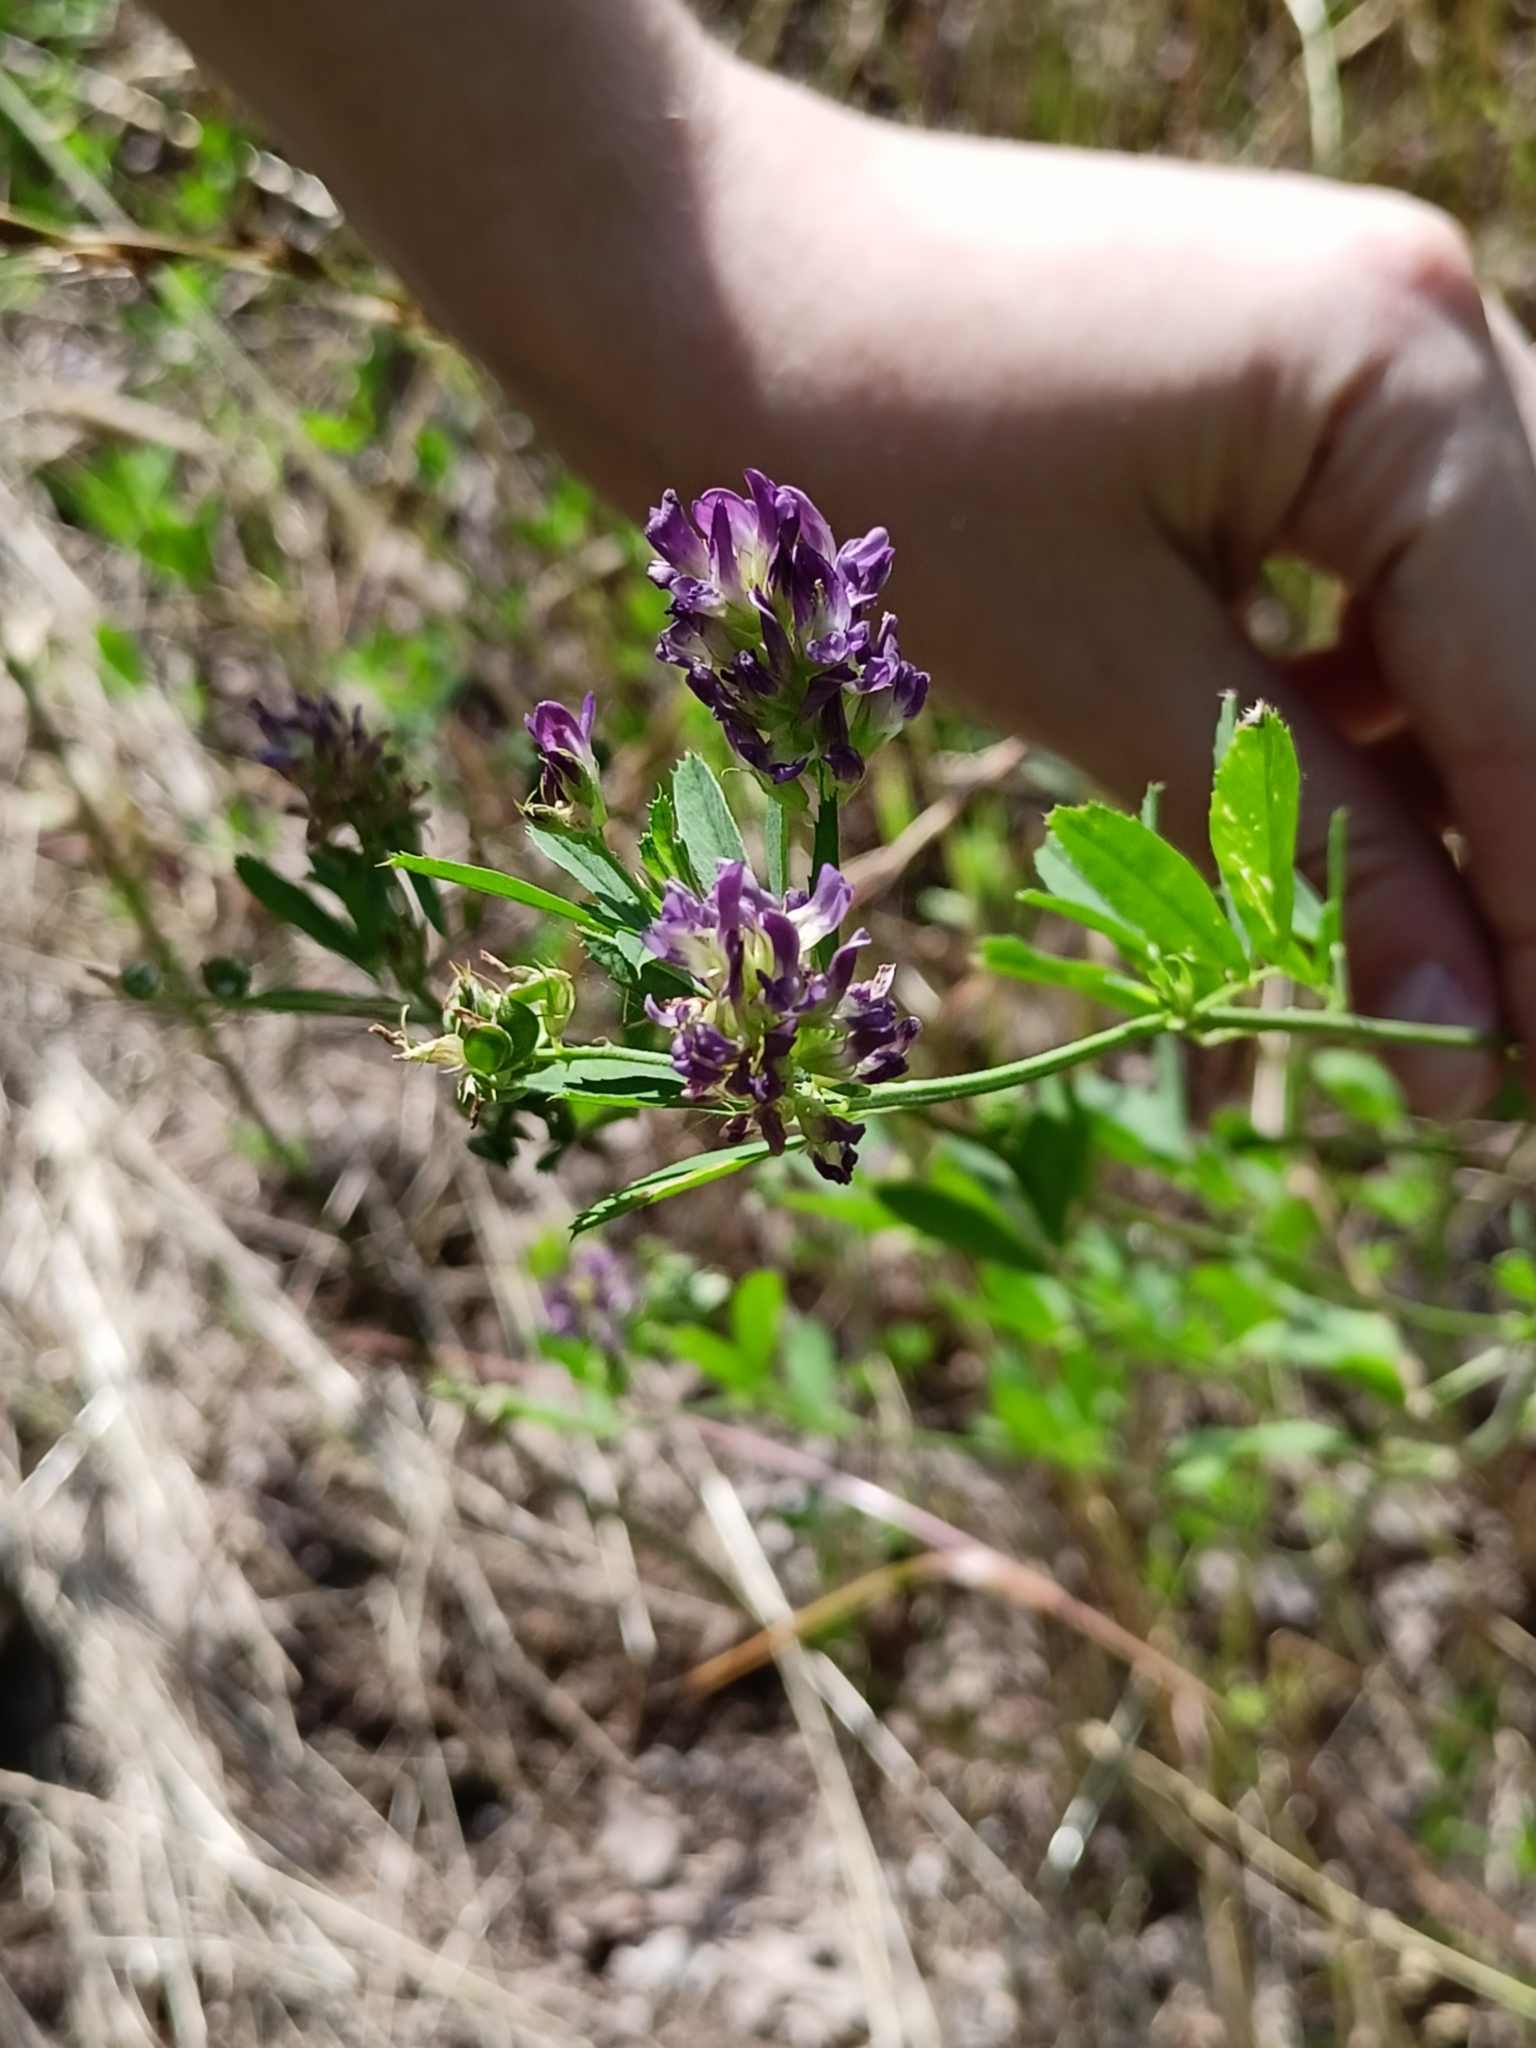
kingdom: Plantae
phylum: Tracheophyta
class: Magnoliopsida
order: Fabales
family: Fabaceae
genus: Medicago
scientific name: Medicago sativa
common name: Alfalfa
